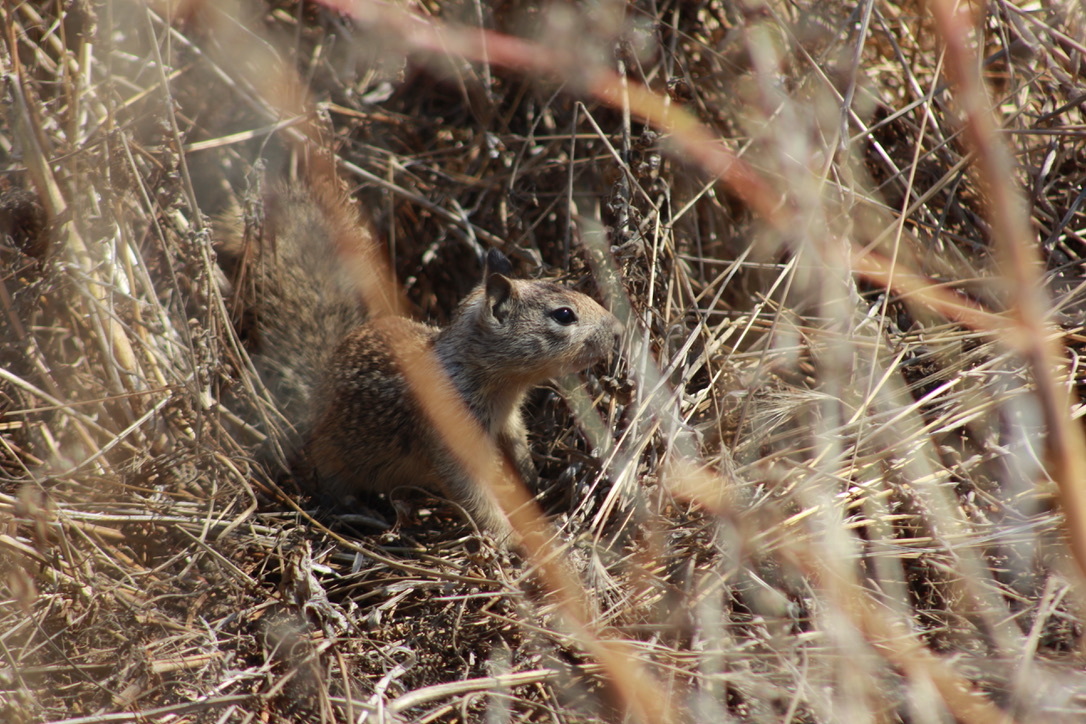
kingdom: Animalia
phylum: Chordata
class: Mammalia
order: Rodentia
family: Sciuridae
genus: Otospermophilus
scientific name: Otospermophilus beecheyi
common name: California ground squirrel
